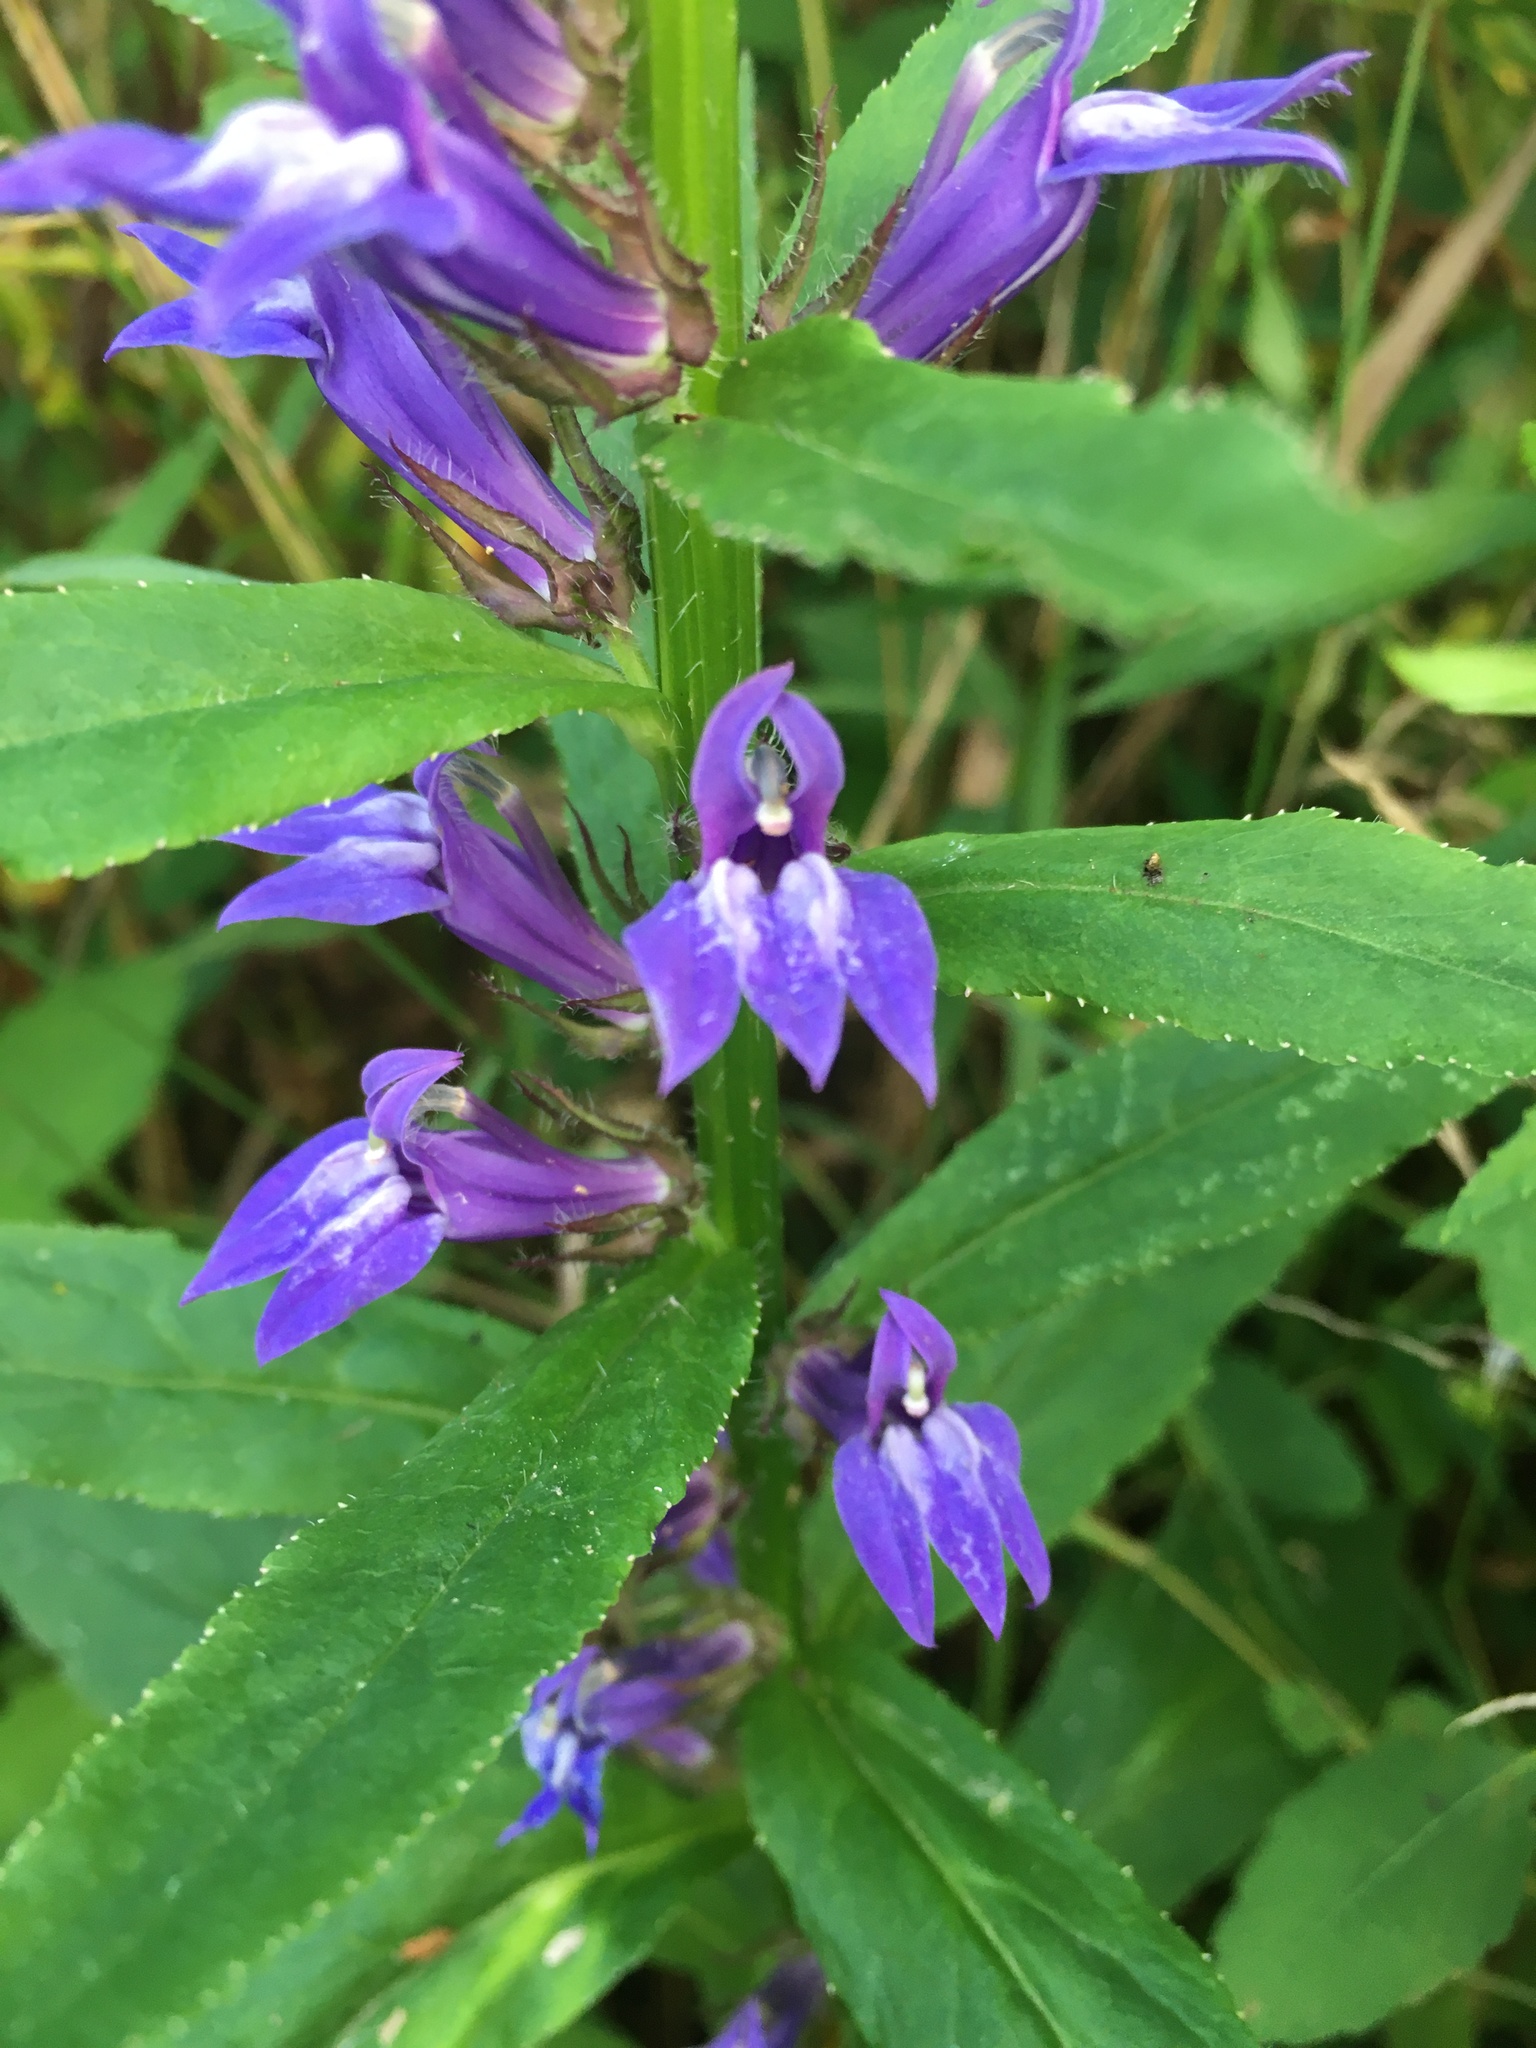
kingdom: Plantae
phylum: Tracheophyta
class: Magnoliopsida
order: Asterales
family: Campanulaceae
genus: Lobelia
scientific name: Lobelia siphilitica
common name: Great lobelia
